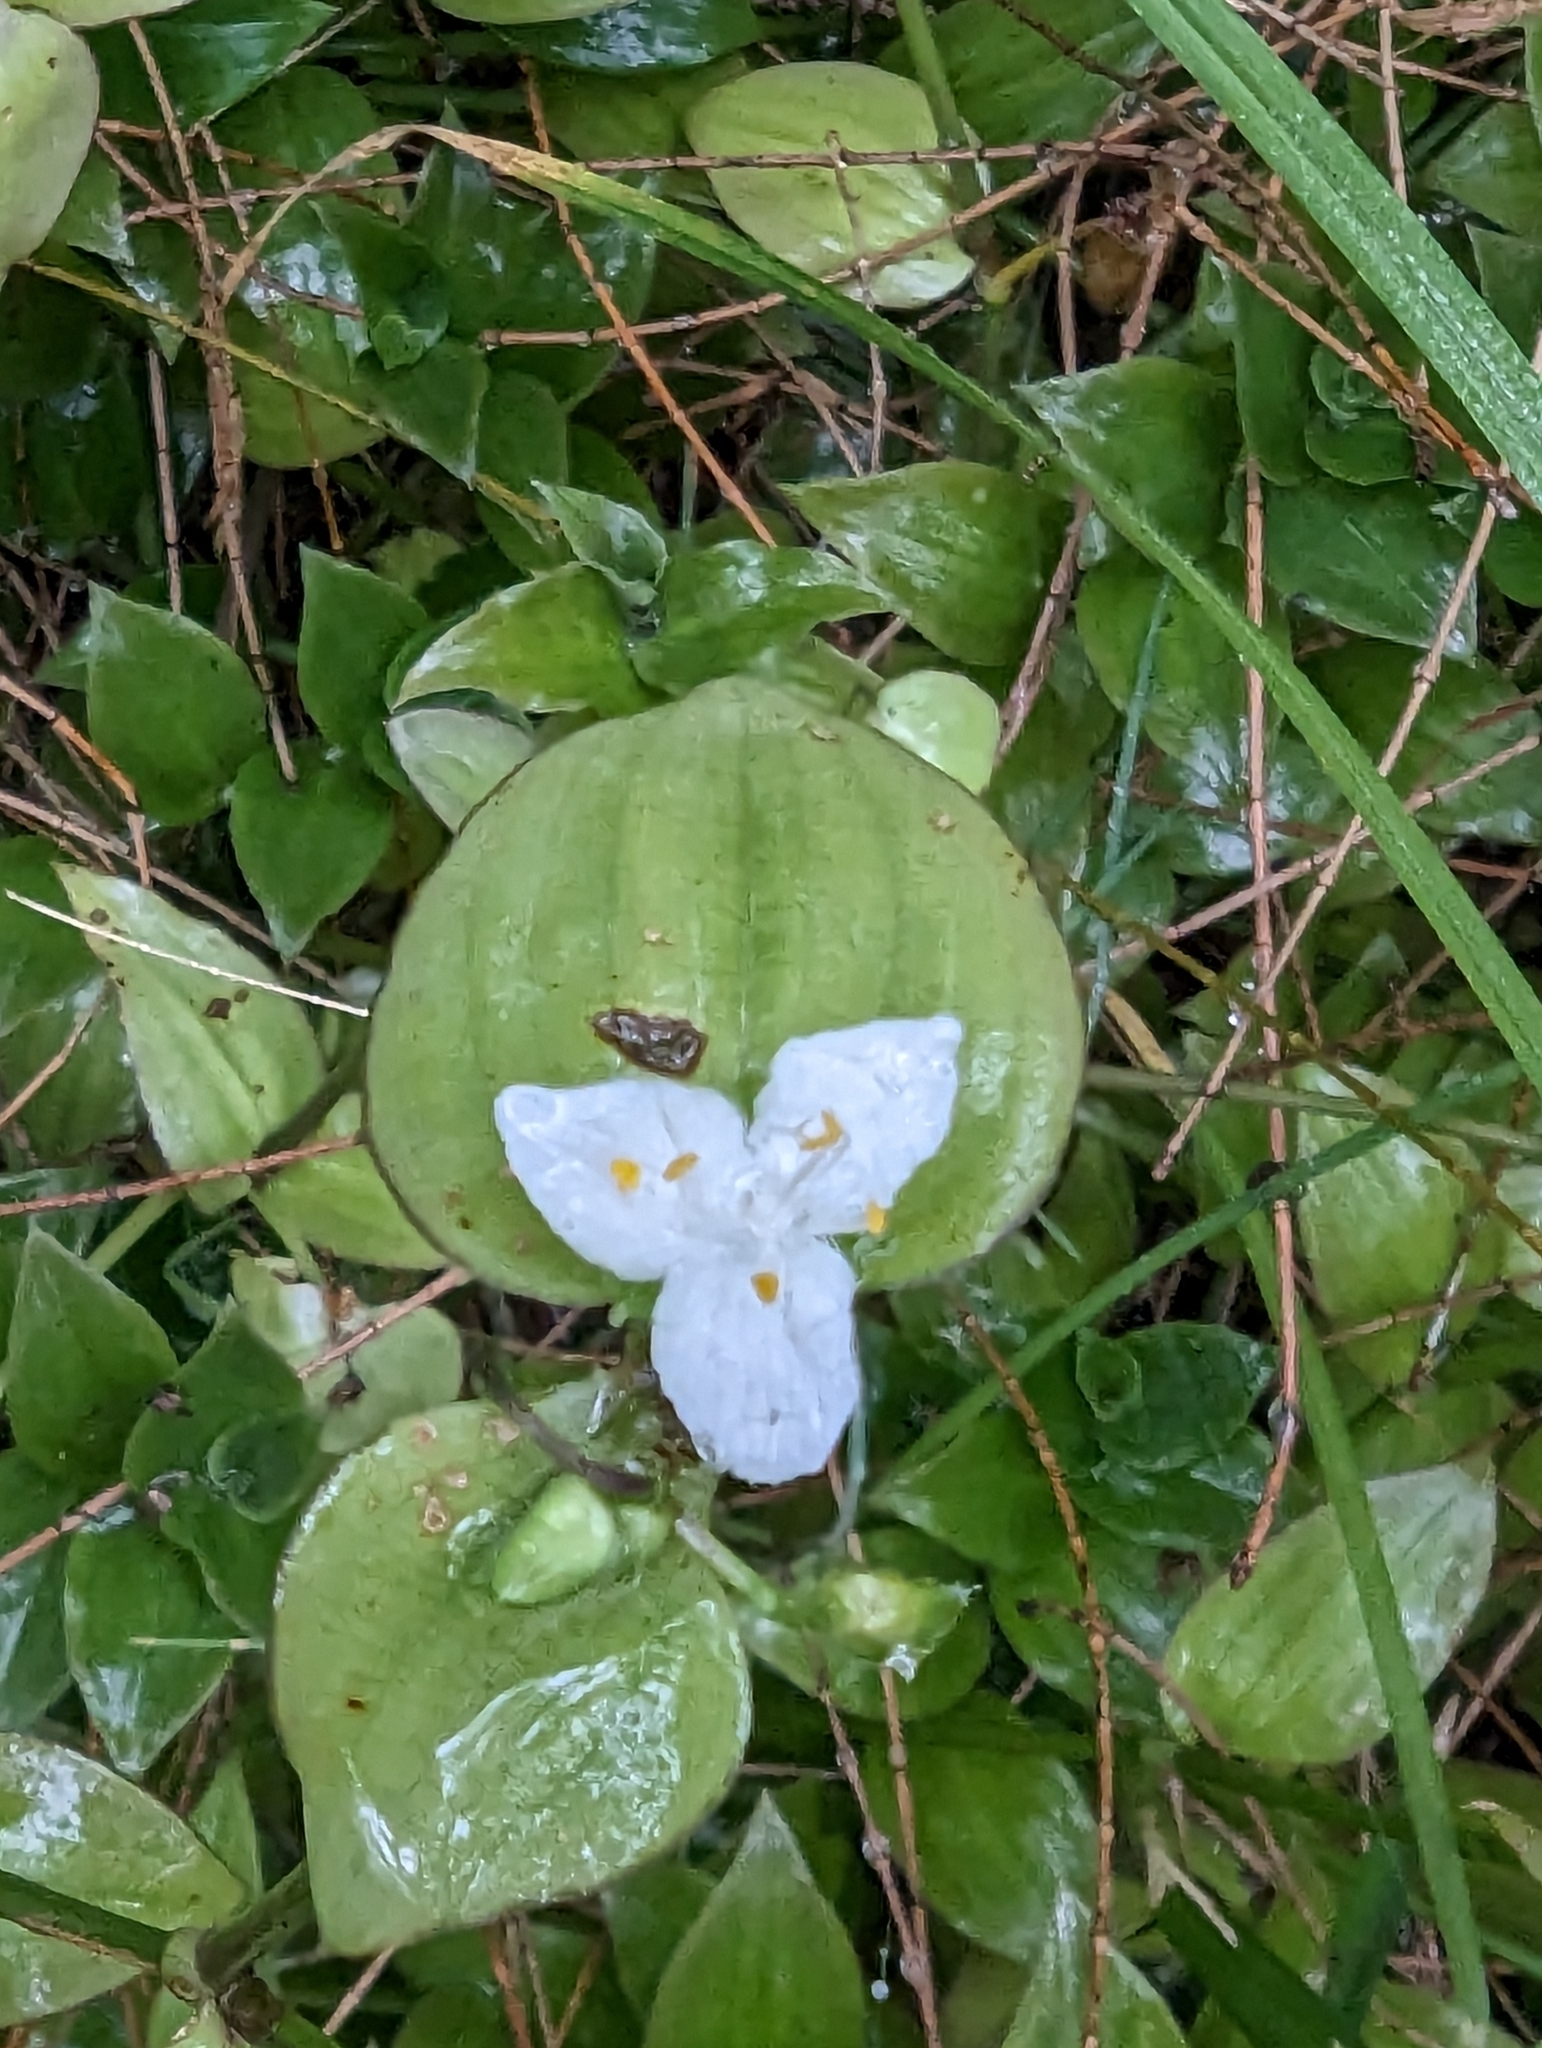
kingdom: Plantae
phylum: Tracheophyta
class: Liliopsida
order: Commelinales
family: Commelinaceae
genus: Tradescantia
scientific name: Tradescantia fluminensis
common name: Wandering-jew
